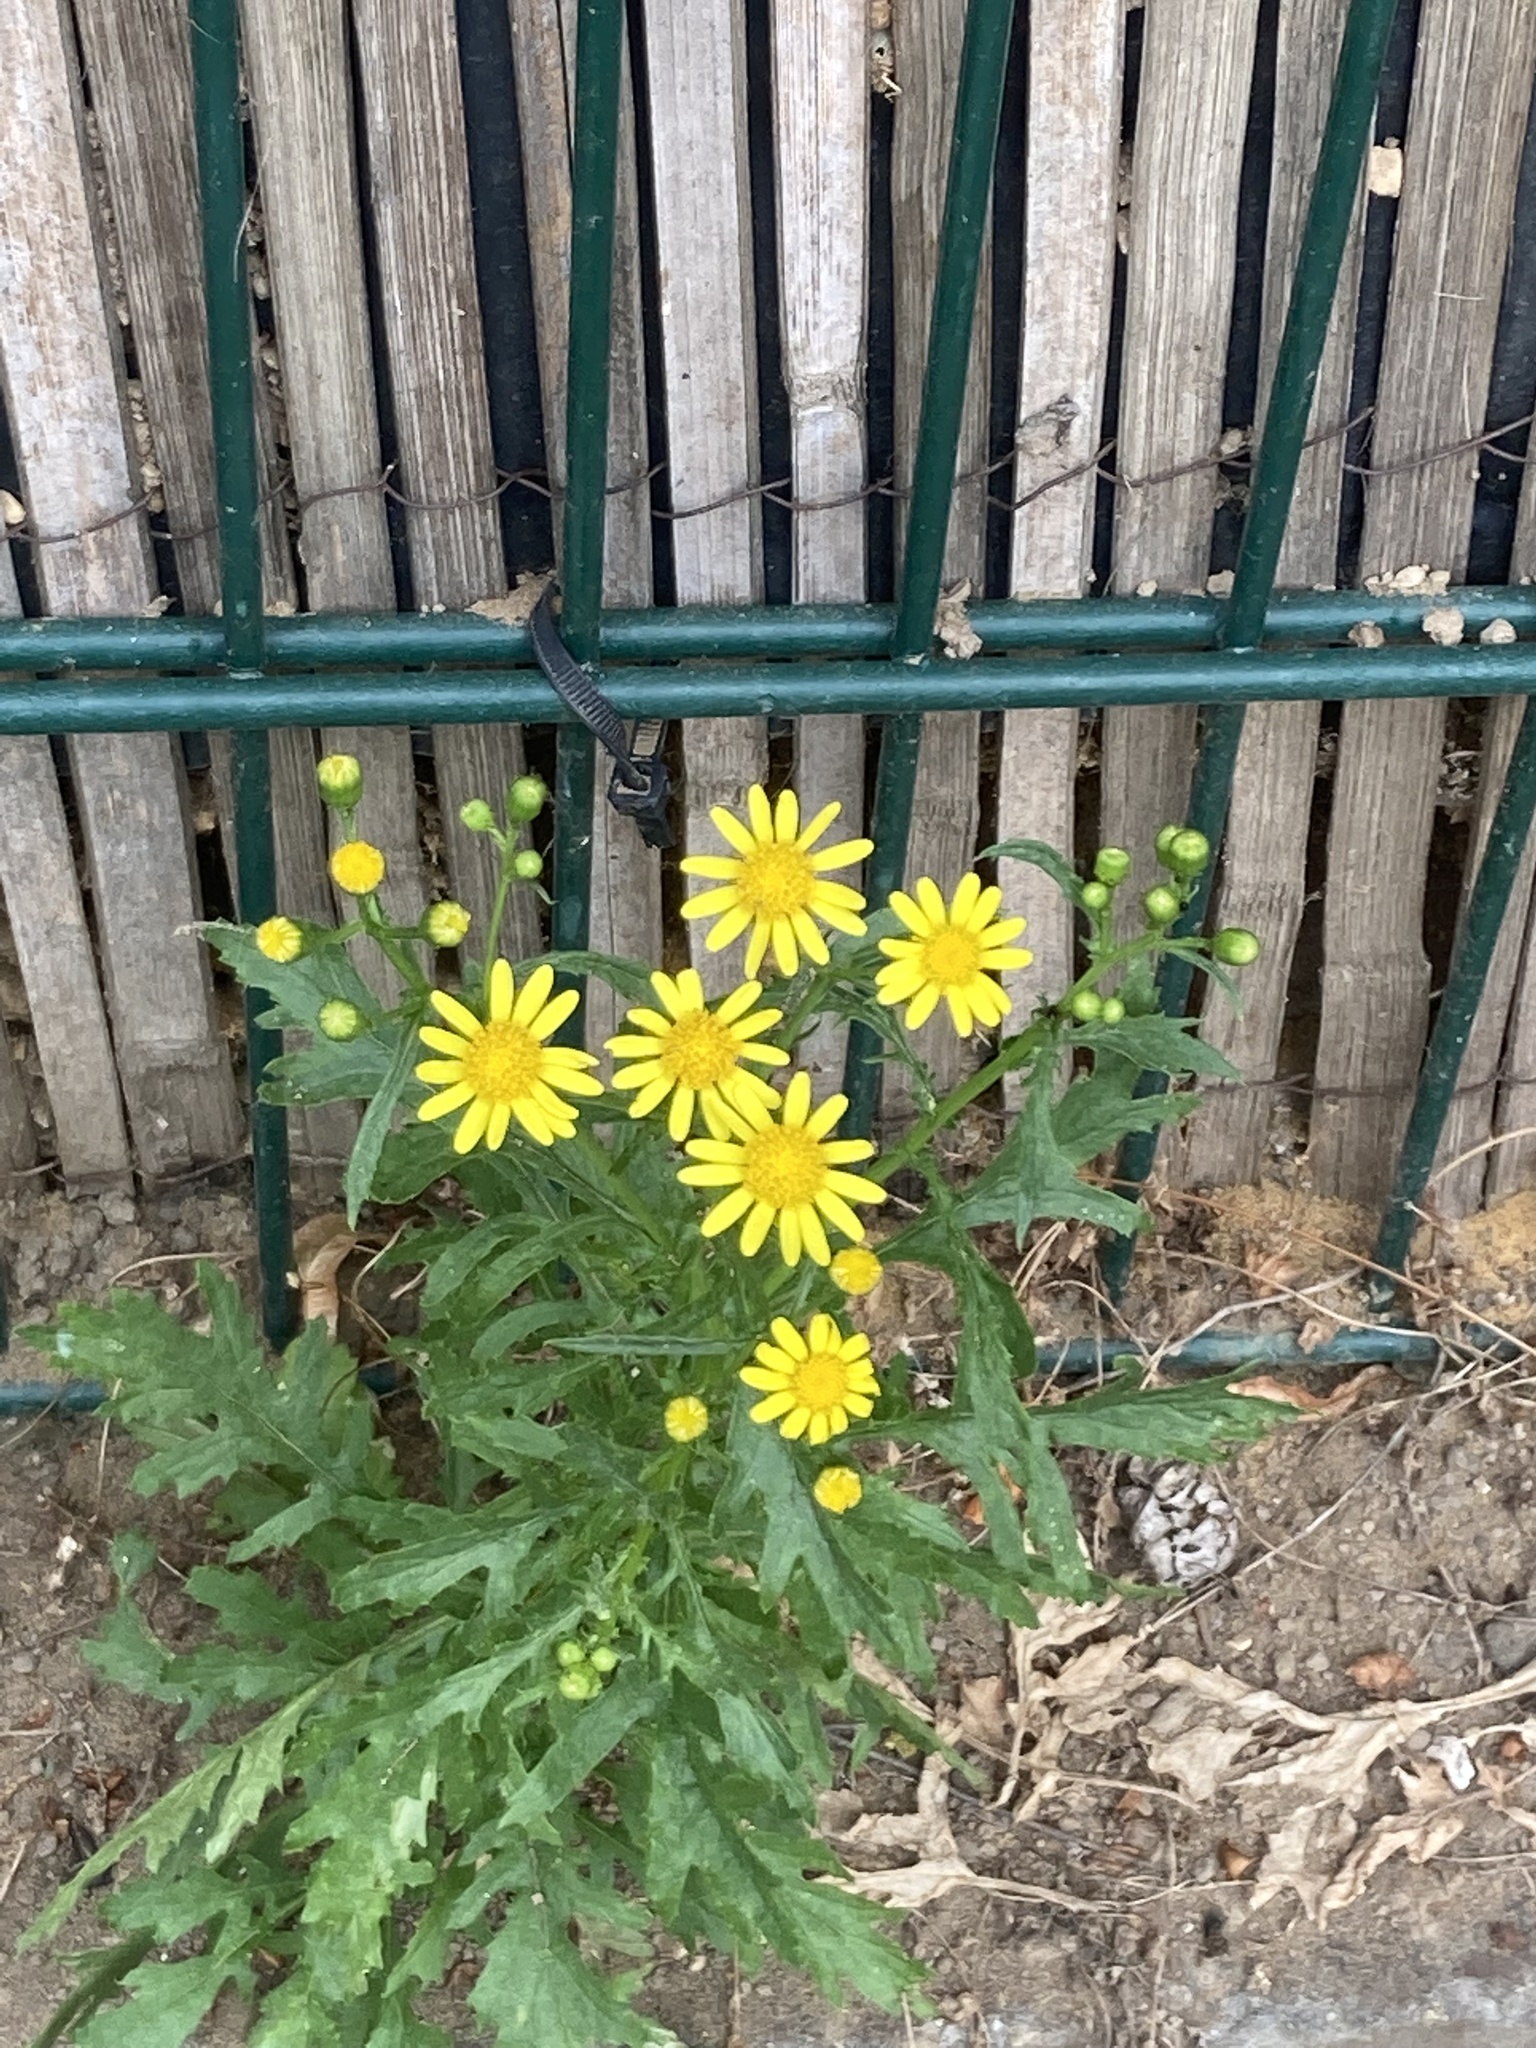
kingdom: Plantae
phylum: Tracheophyta
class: Magnoliopsida
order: Asterales
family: Asteraceae
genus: Senecio
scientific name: Senecio squalidus
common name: Oxford ragwort
